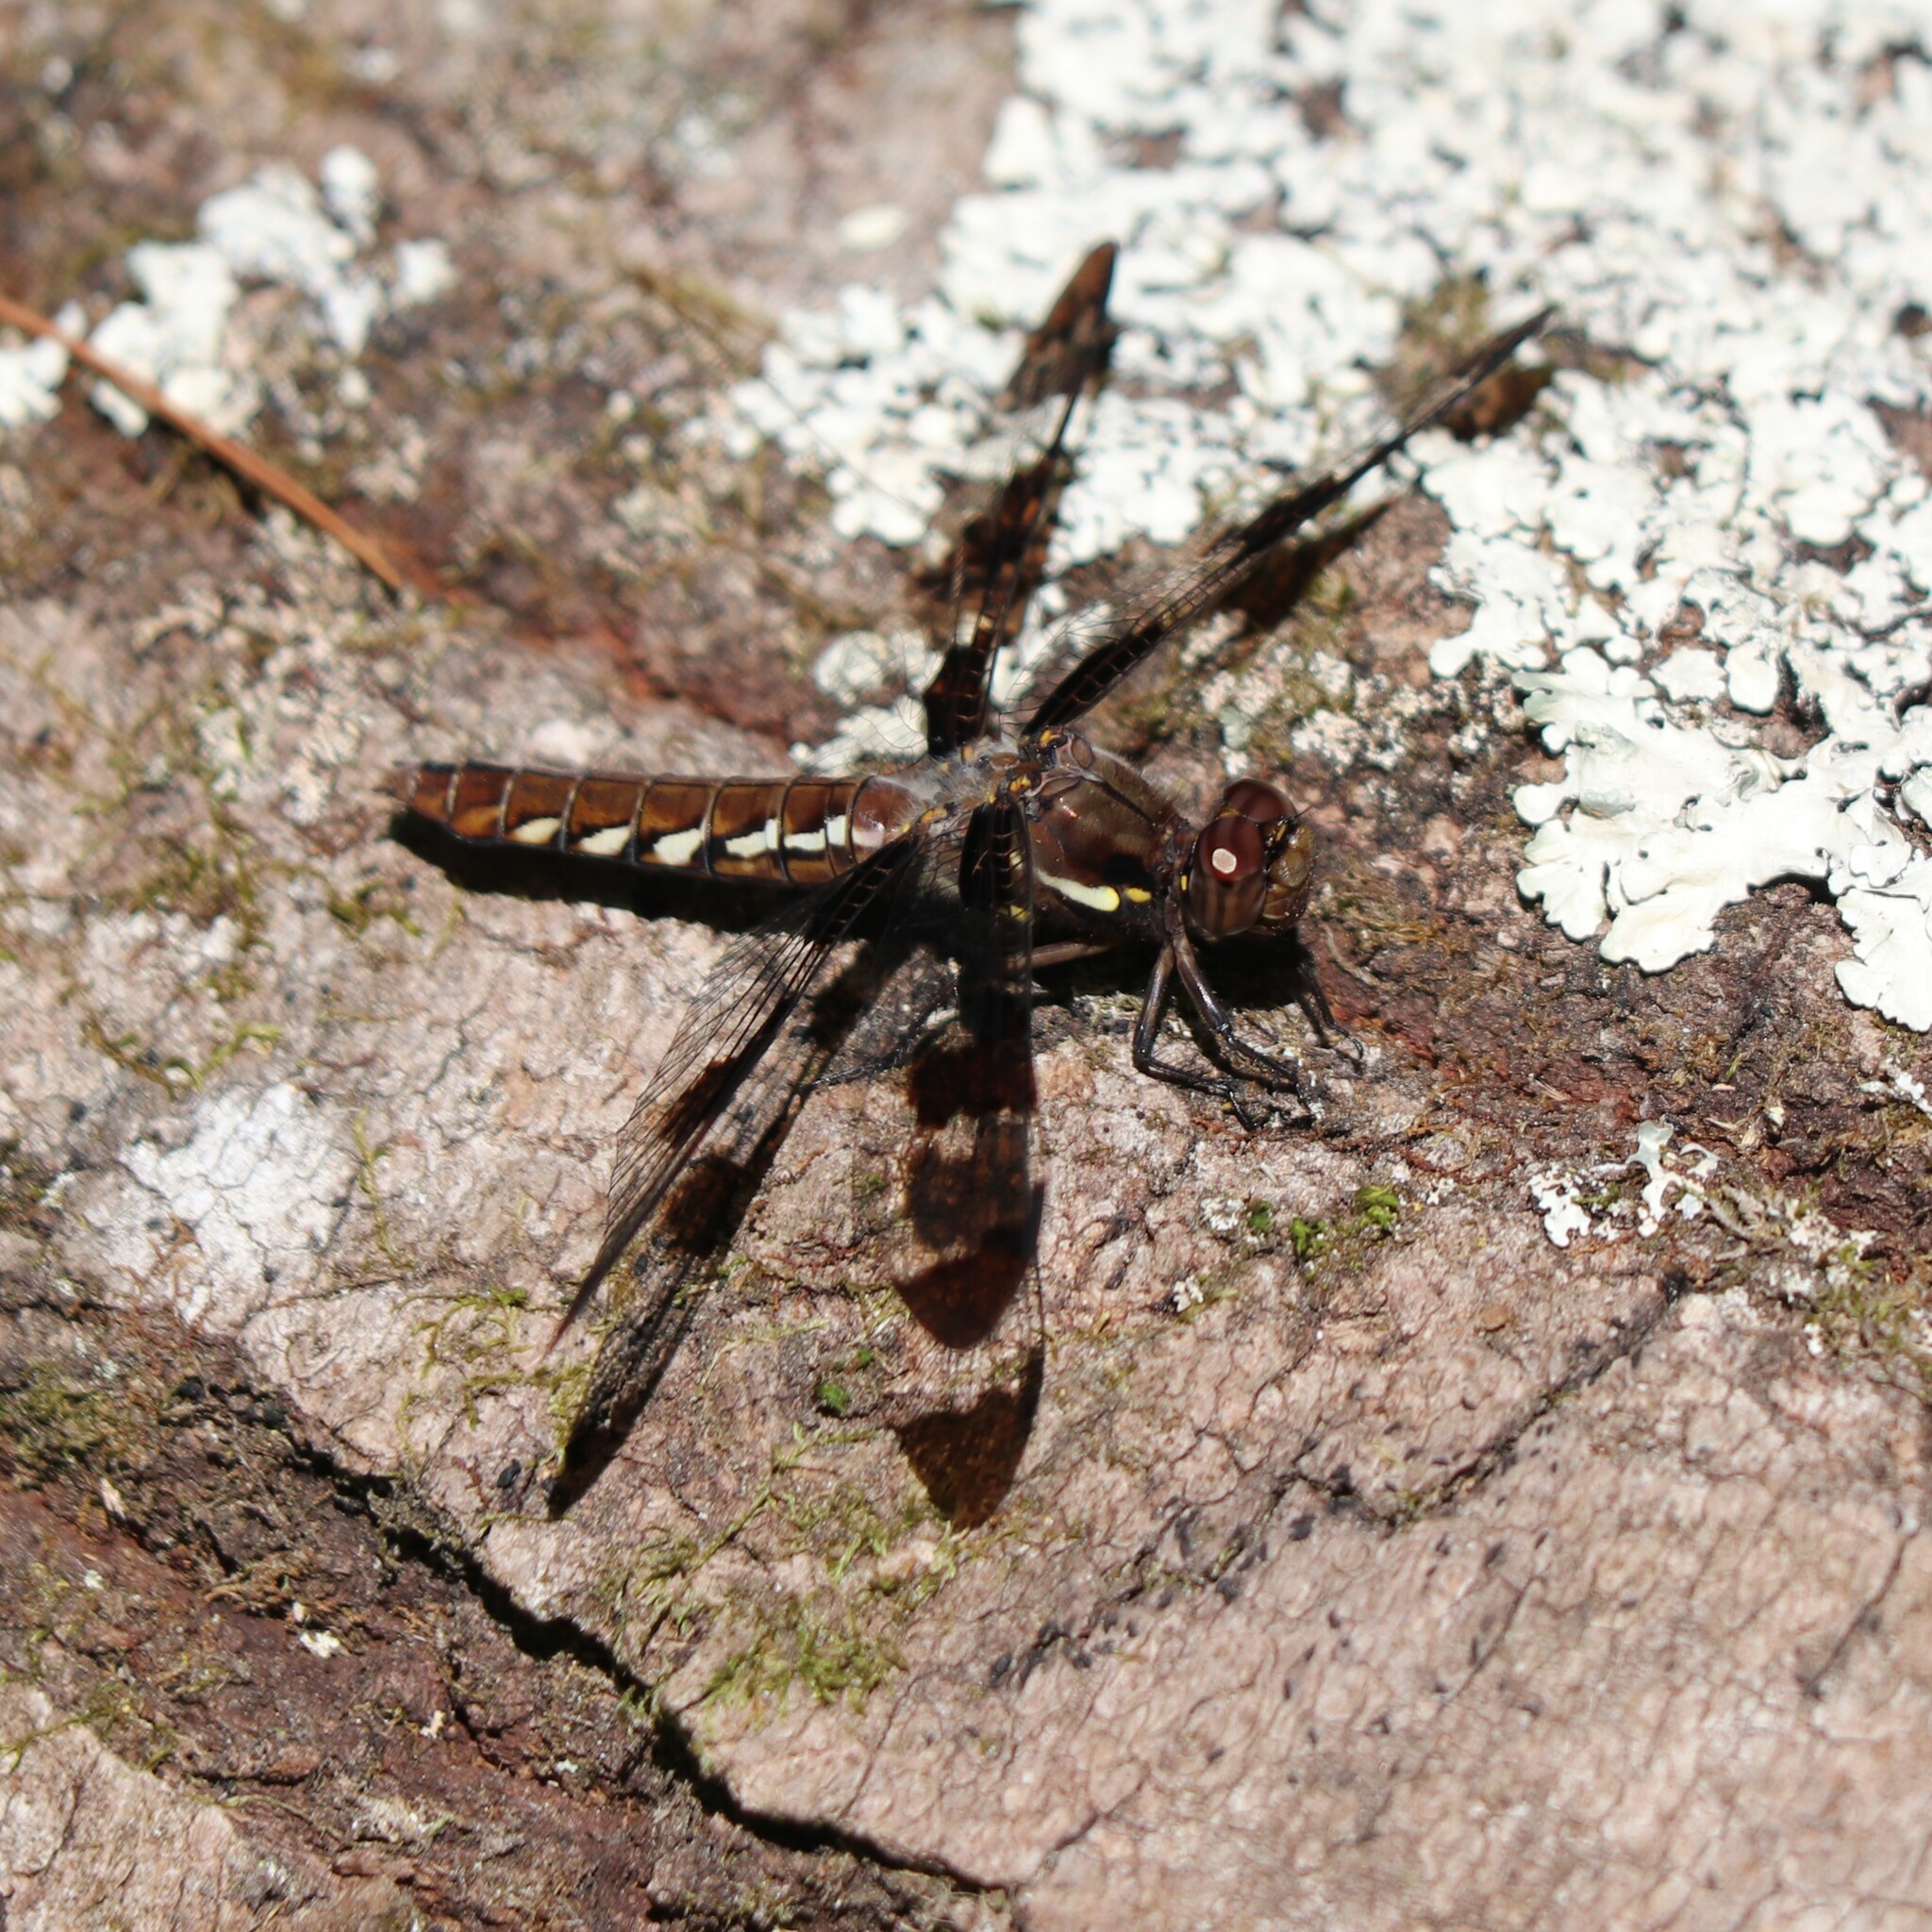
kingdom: Animalia
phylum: Arthropoda
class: Insecta
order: Odonata
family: Libellulidae
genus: Plathemis
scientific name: Plathemis lydia
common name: Common whitetail
